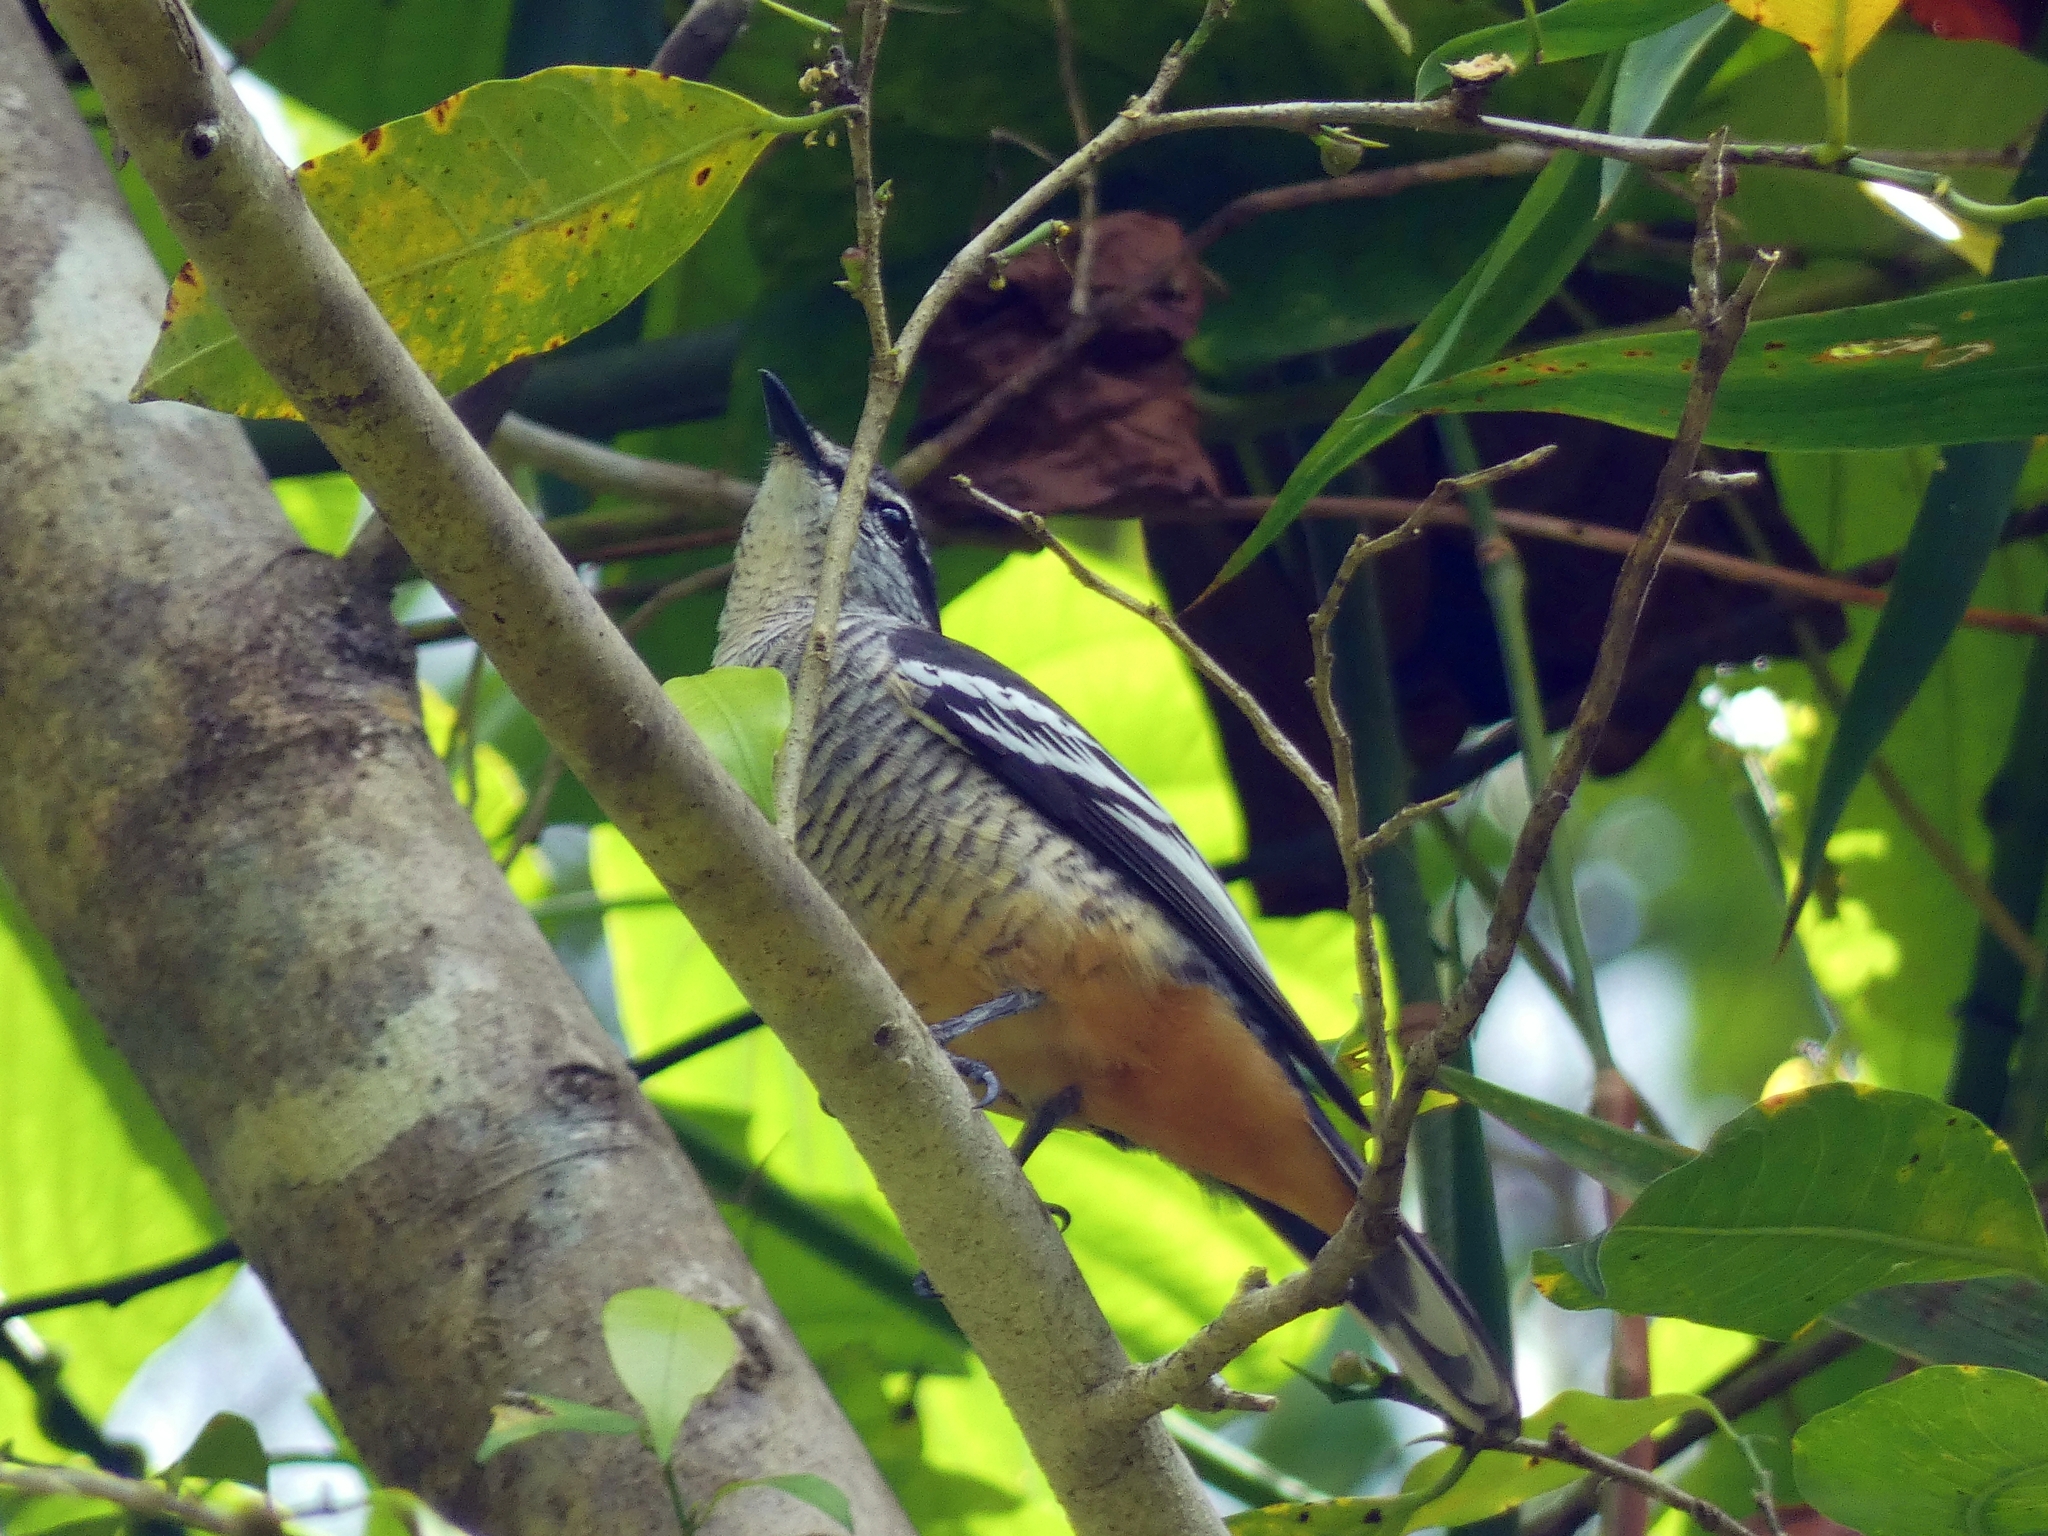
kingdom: Animalia
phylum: Chordata
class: Aves
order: Passeriformes
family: Campephagidae
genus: Lalage
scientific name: Lalage leucomela
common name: Varied triller
